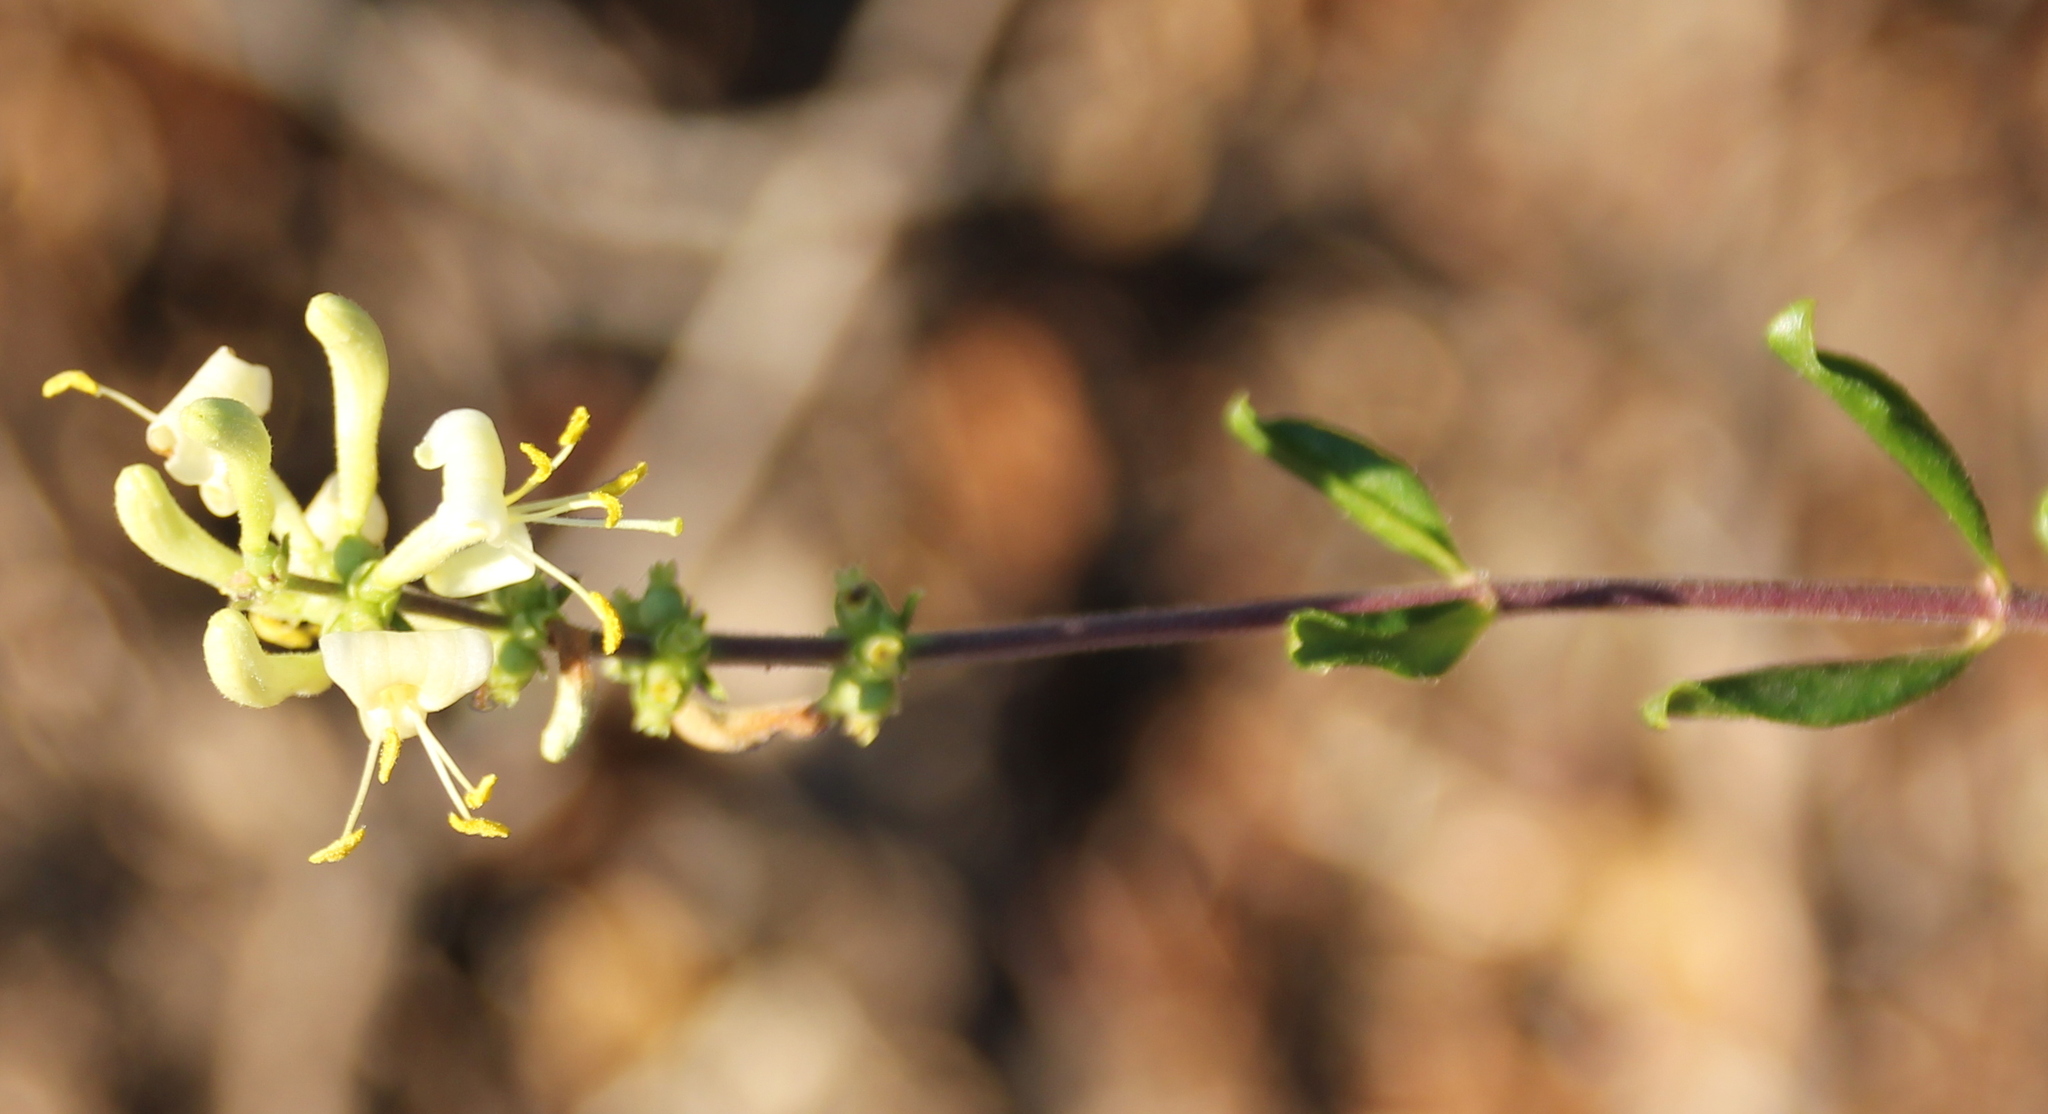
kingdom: Plantae
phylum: Tracheophyta
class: Magnoliopsida
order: Dipsacales
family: Caprifoliaceae
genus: Lonicera
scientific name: Lonicera subspicata
